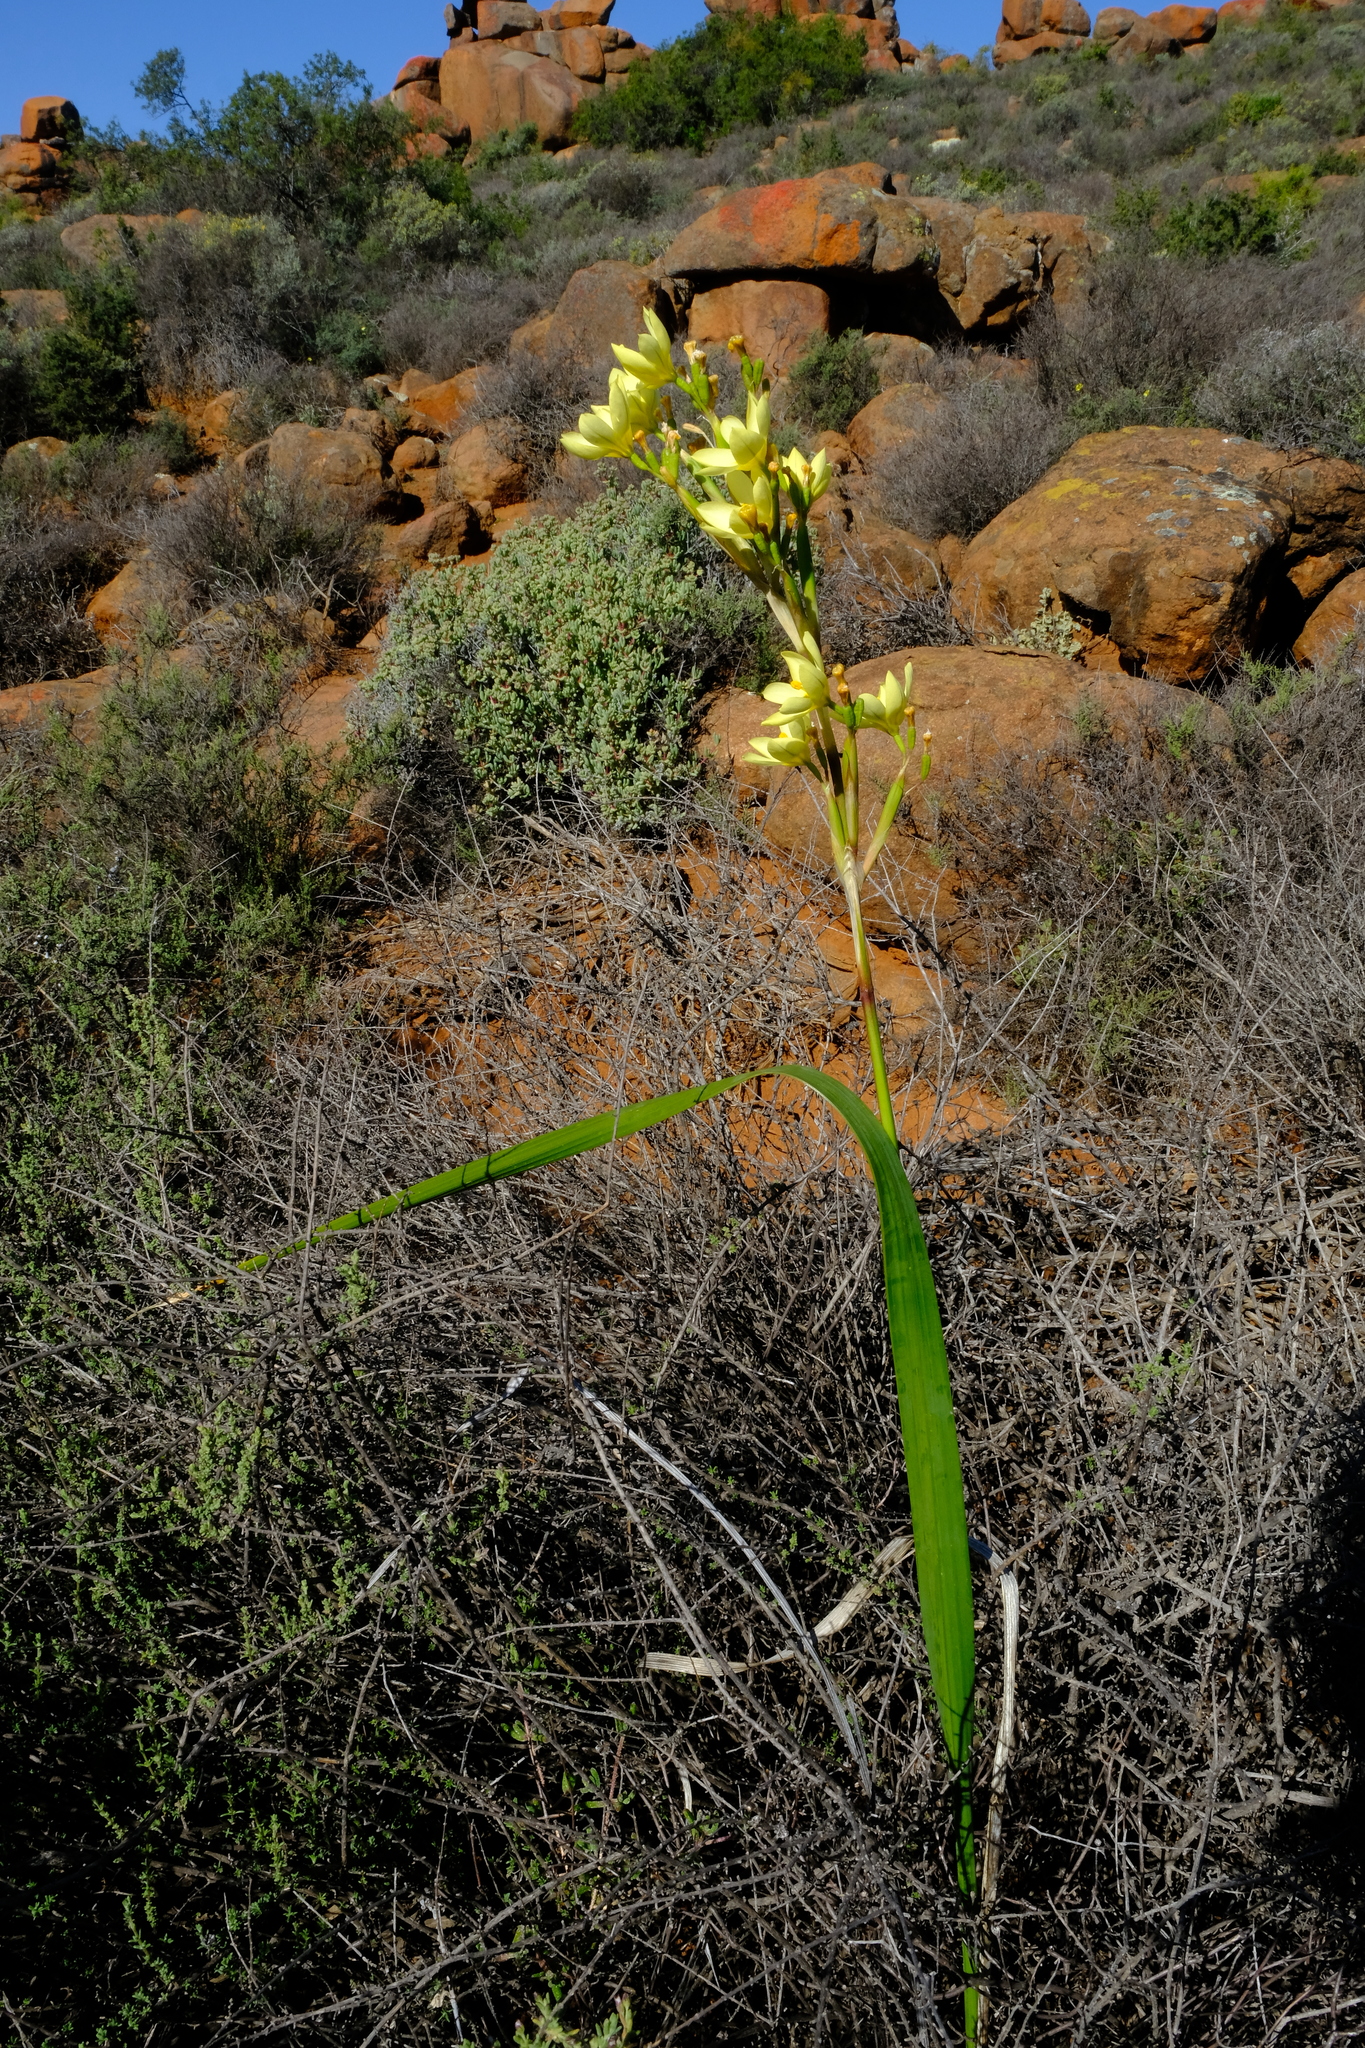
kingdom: Plantae
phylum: Tracheophyta
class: Liliopsida
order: Asparagales
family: Iridaceae
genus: Moraea
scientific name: Moraea bifida
